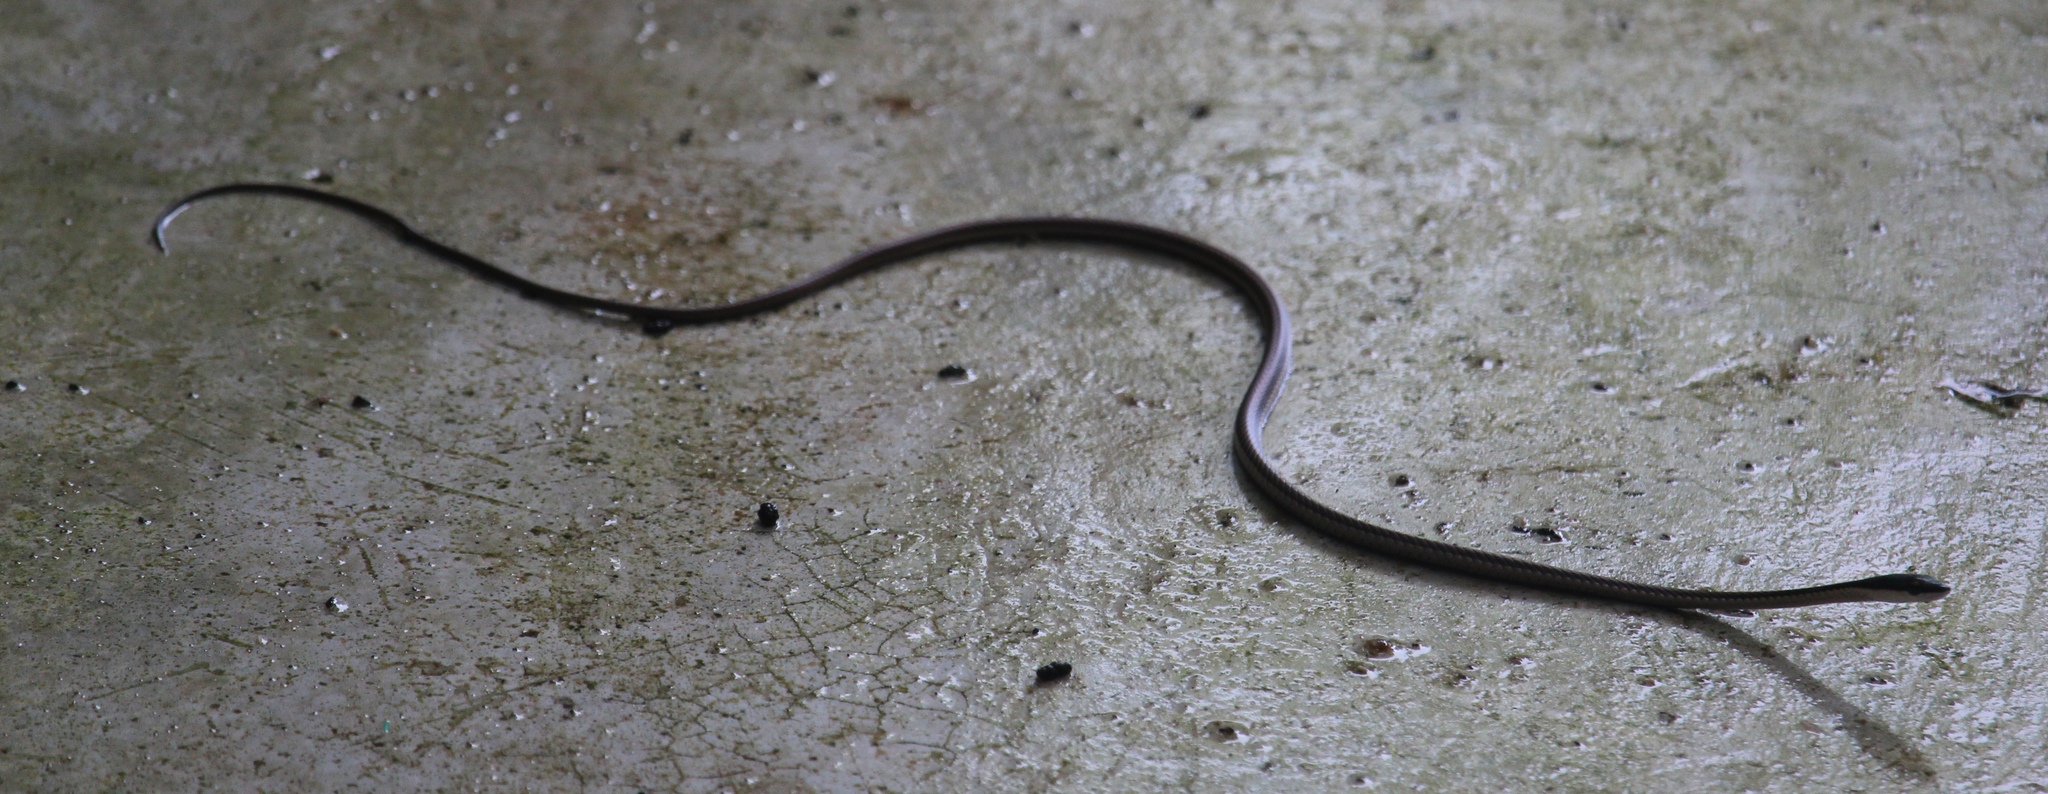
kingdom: Animalia
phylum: Chordata
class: Squamata
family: Colubridae
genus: Leptophis
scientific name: Leptophis mexicanus
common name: Mexican parrot snake
